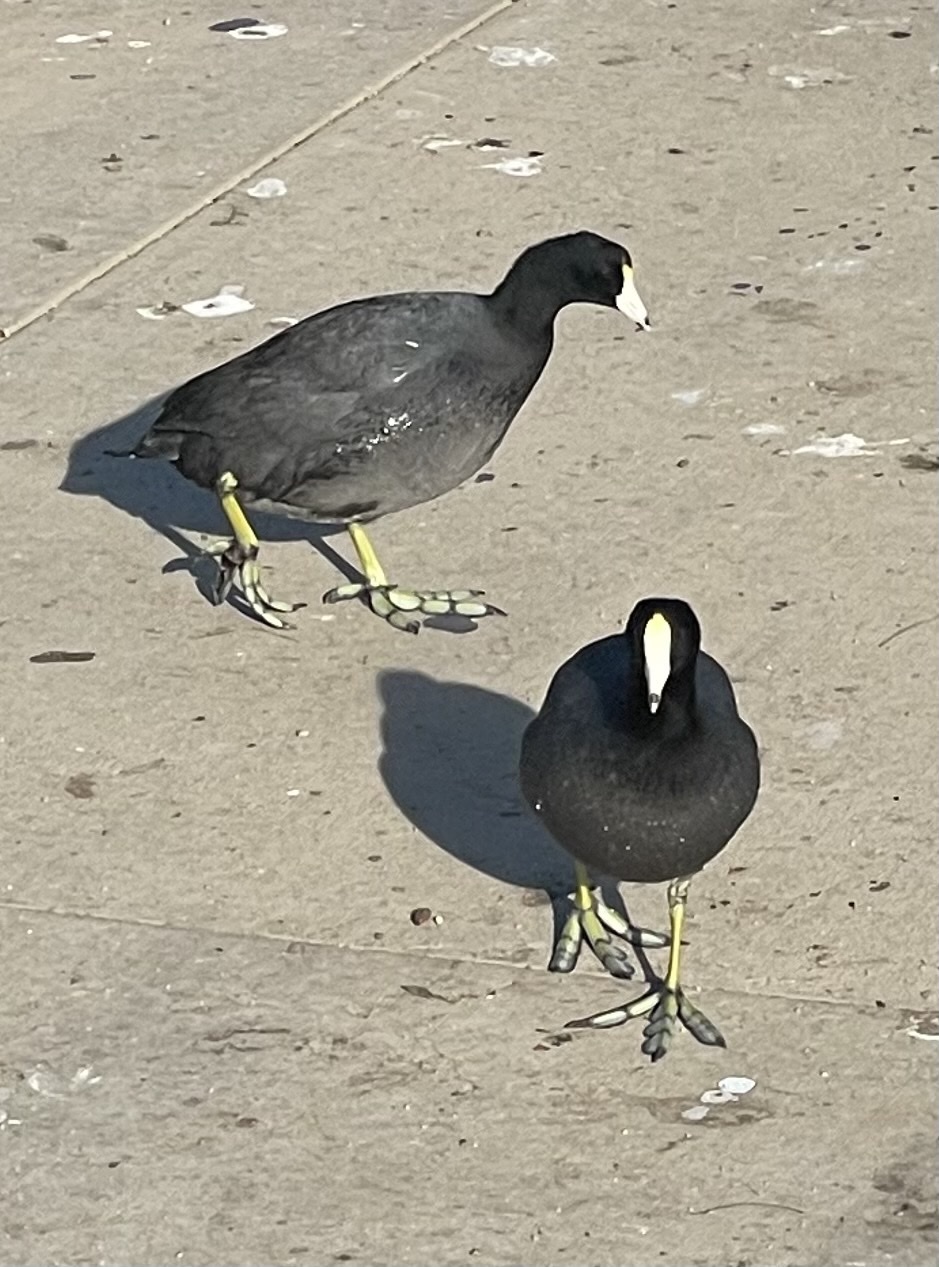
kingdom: Animalia
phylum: Chordata
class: Aves
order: Gruiformes
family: Rallidae
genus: Fulica
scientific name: Fulica americana
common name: American coot
